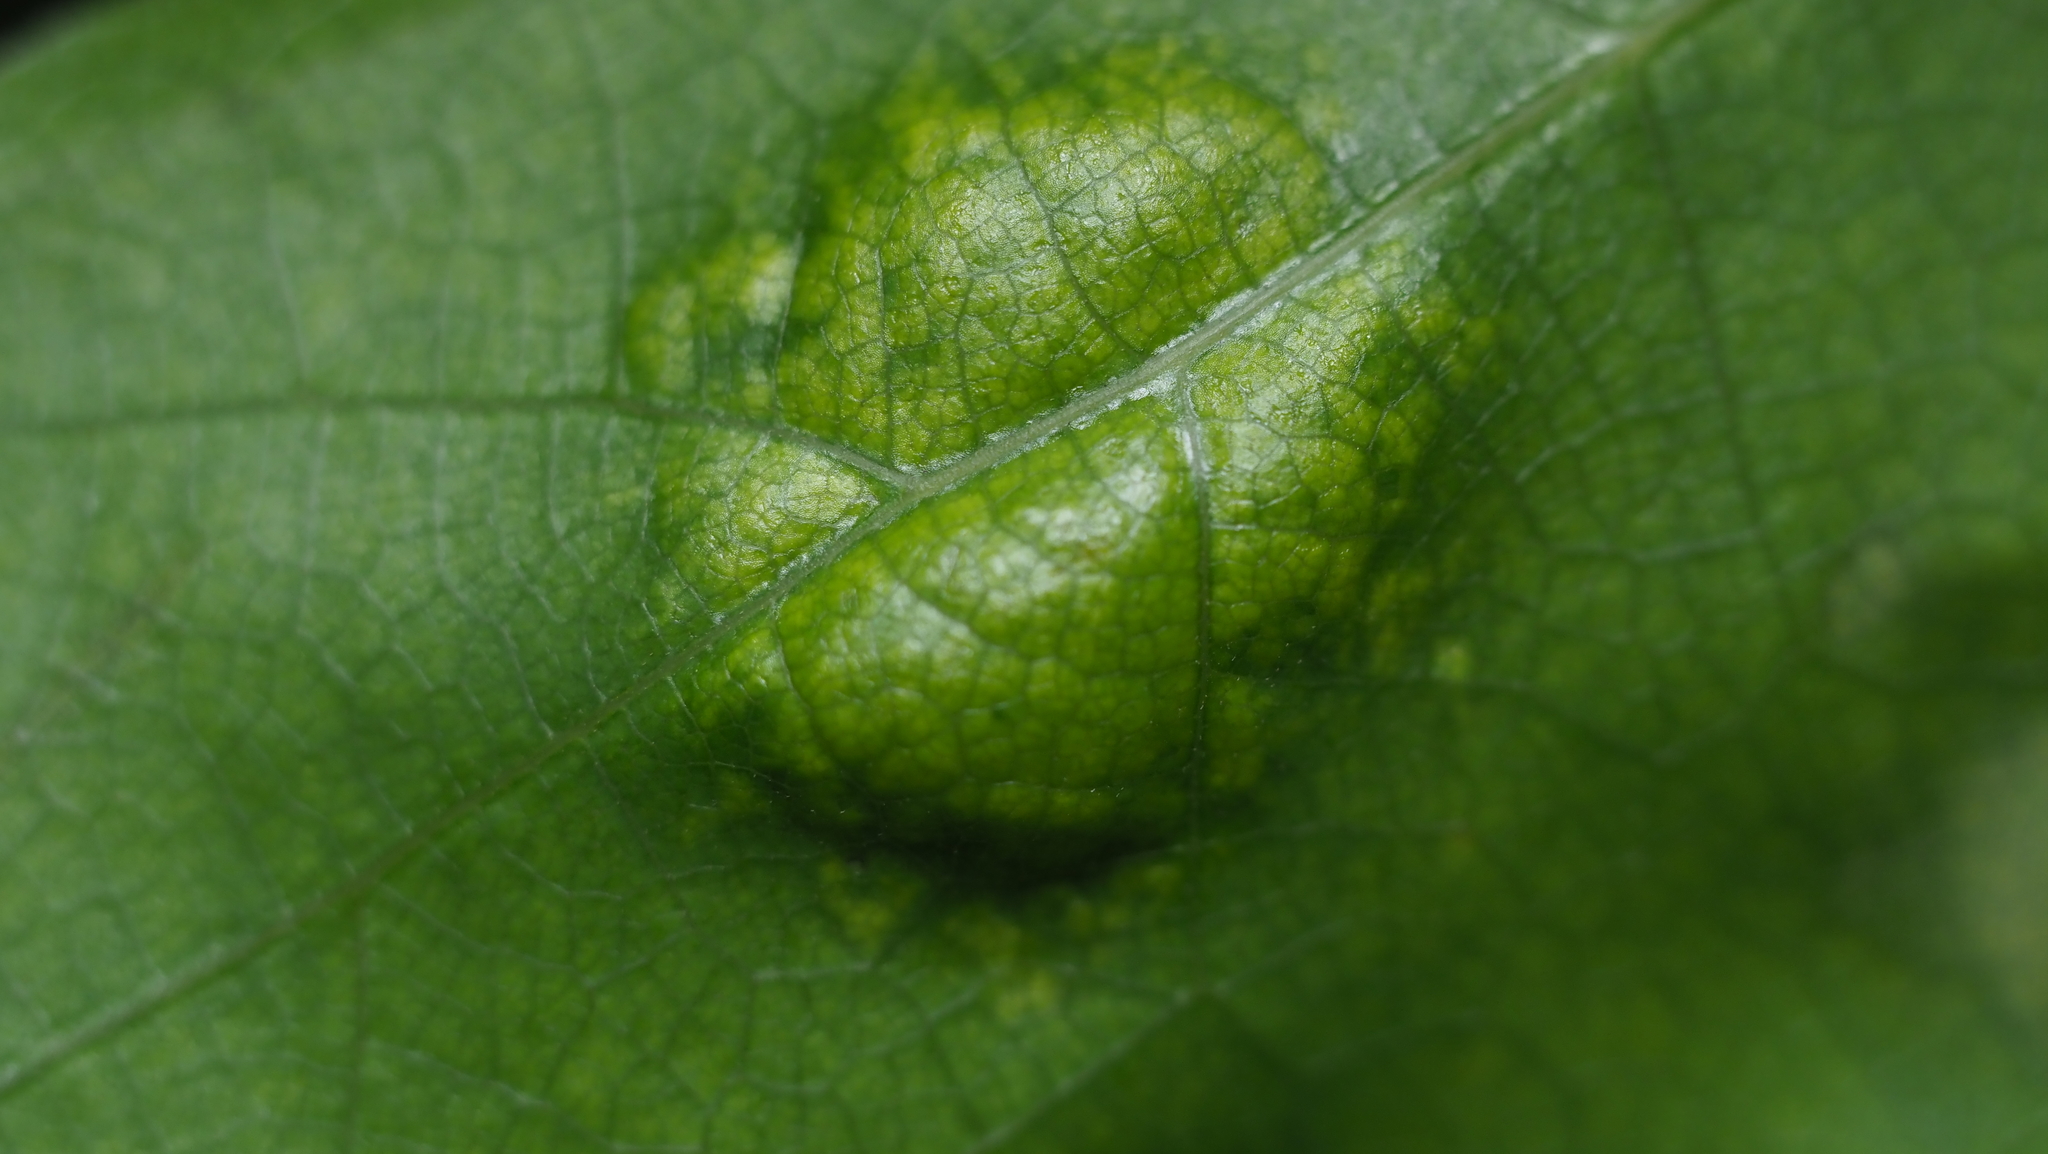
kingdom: Fungi
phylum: Ascomycota
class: Taphrinomycetes
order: Taphrinales
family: Taphrinaceae
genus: Taphrina
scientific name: Taphrina caerulescens
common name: Oak leaf blister
